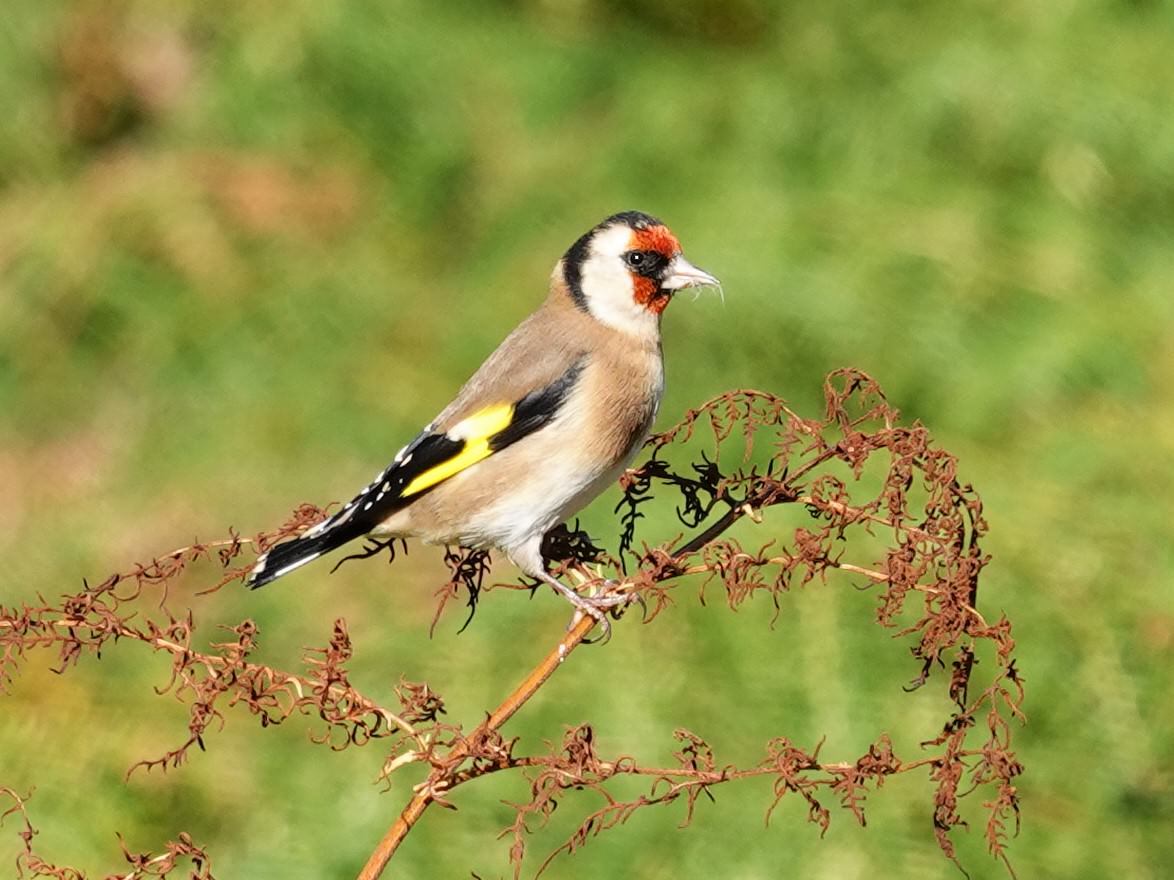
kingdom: Animalia
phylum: Chordata
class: Aves
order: Passeriformes
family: Fringillidae
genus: Carduelis
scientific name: Carduelis carduelis
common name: European goldfinch
